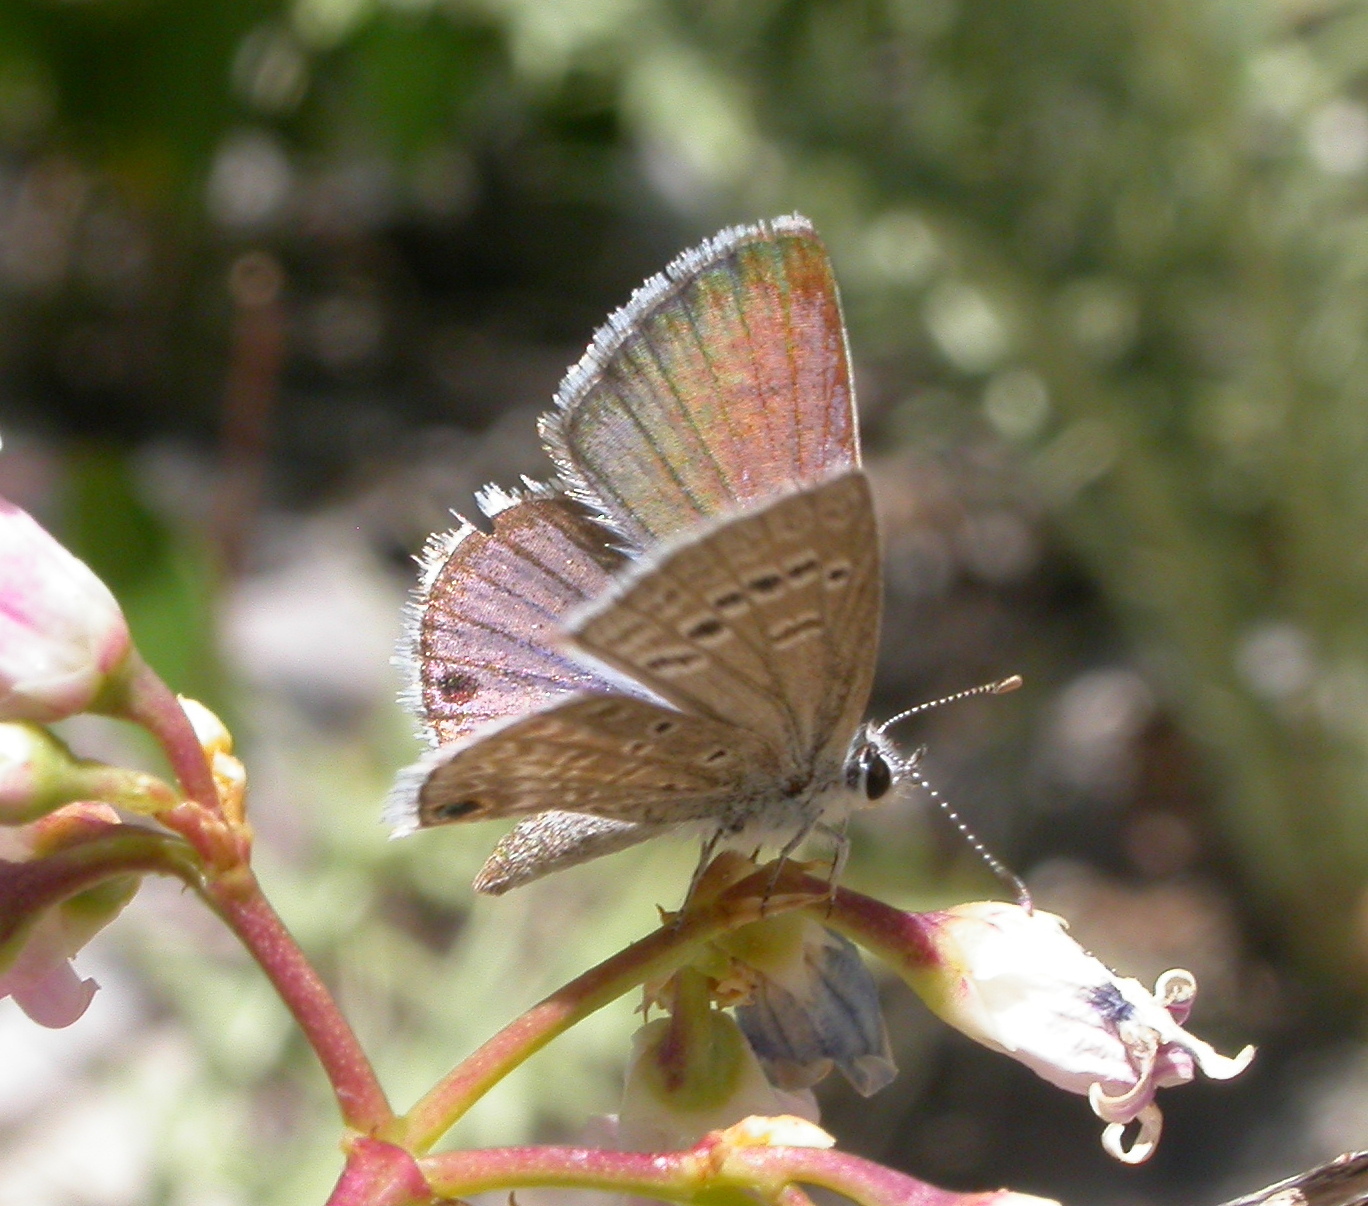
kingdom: Animalia
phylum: Arthropoda
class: Insecta
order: Lepidoptera
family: Lycaenidae
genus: Hemiargus
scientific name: Hemiargus ceraunus
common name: Ceraunus blue
